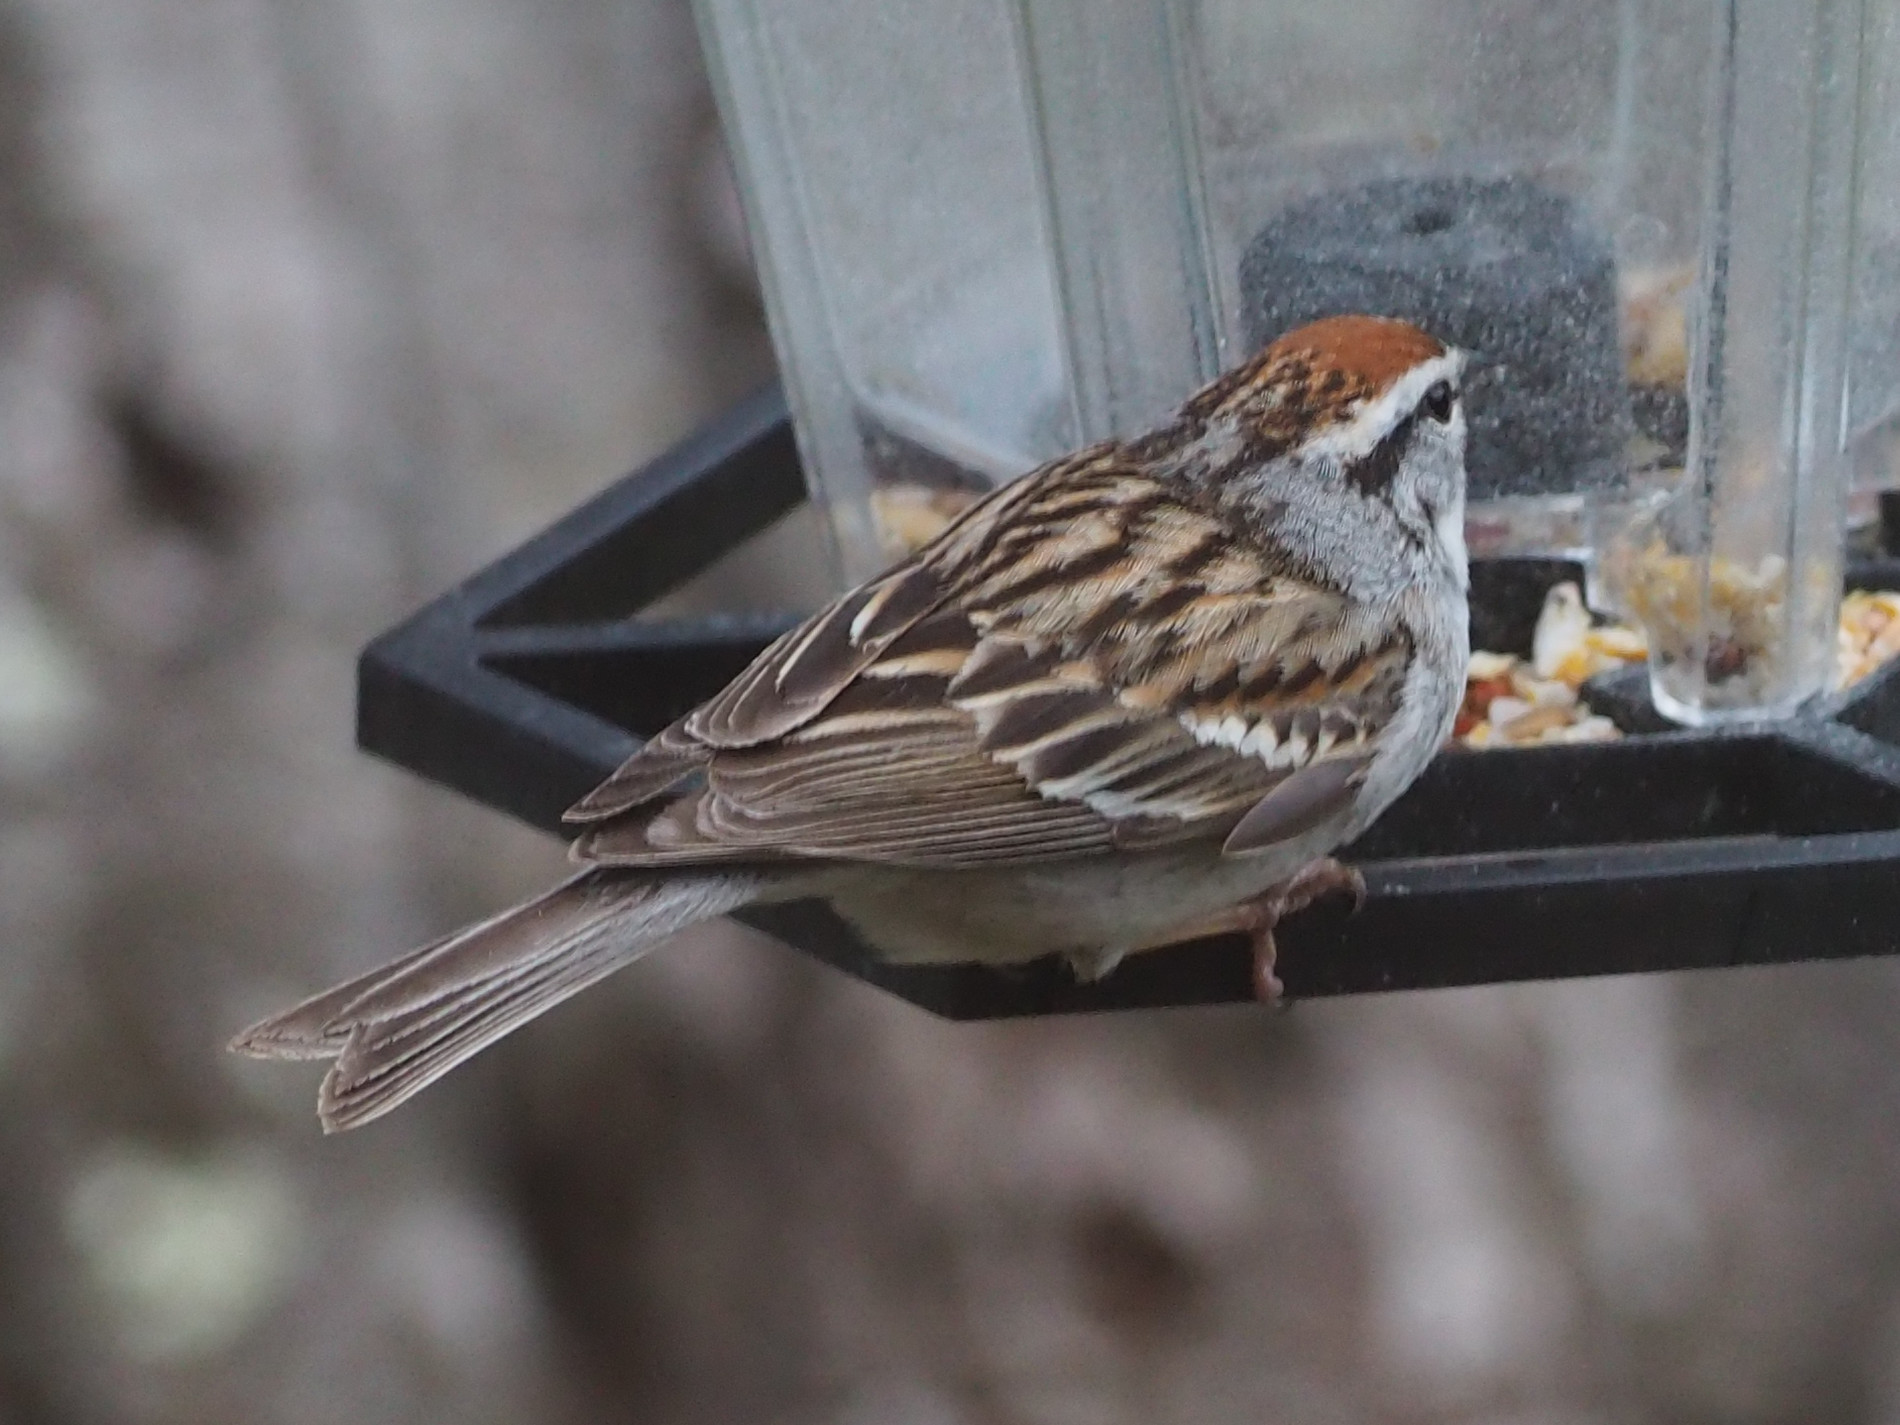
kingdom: Animalia
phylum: Chordata
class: Aves
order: Passeriformes
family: Passerellidae
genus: Spizella
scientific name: Spizella passerina
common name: Chipping sparrow
